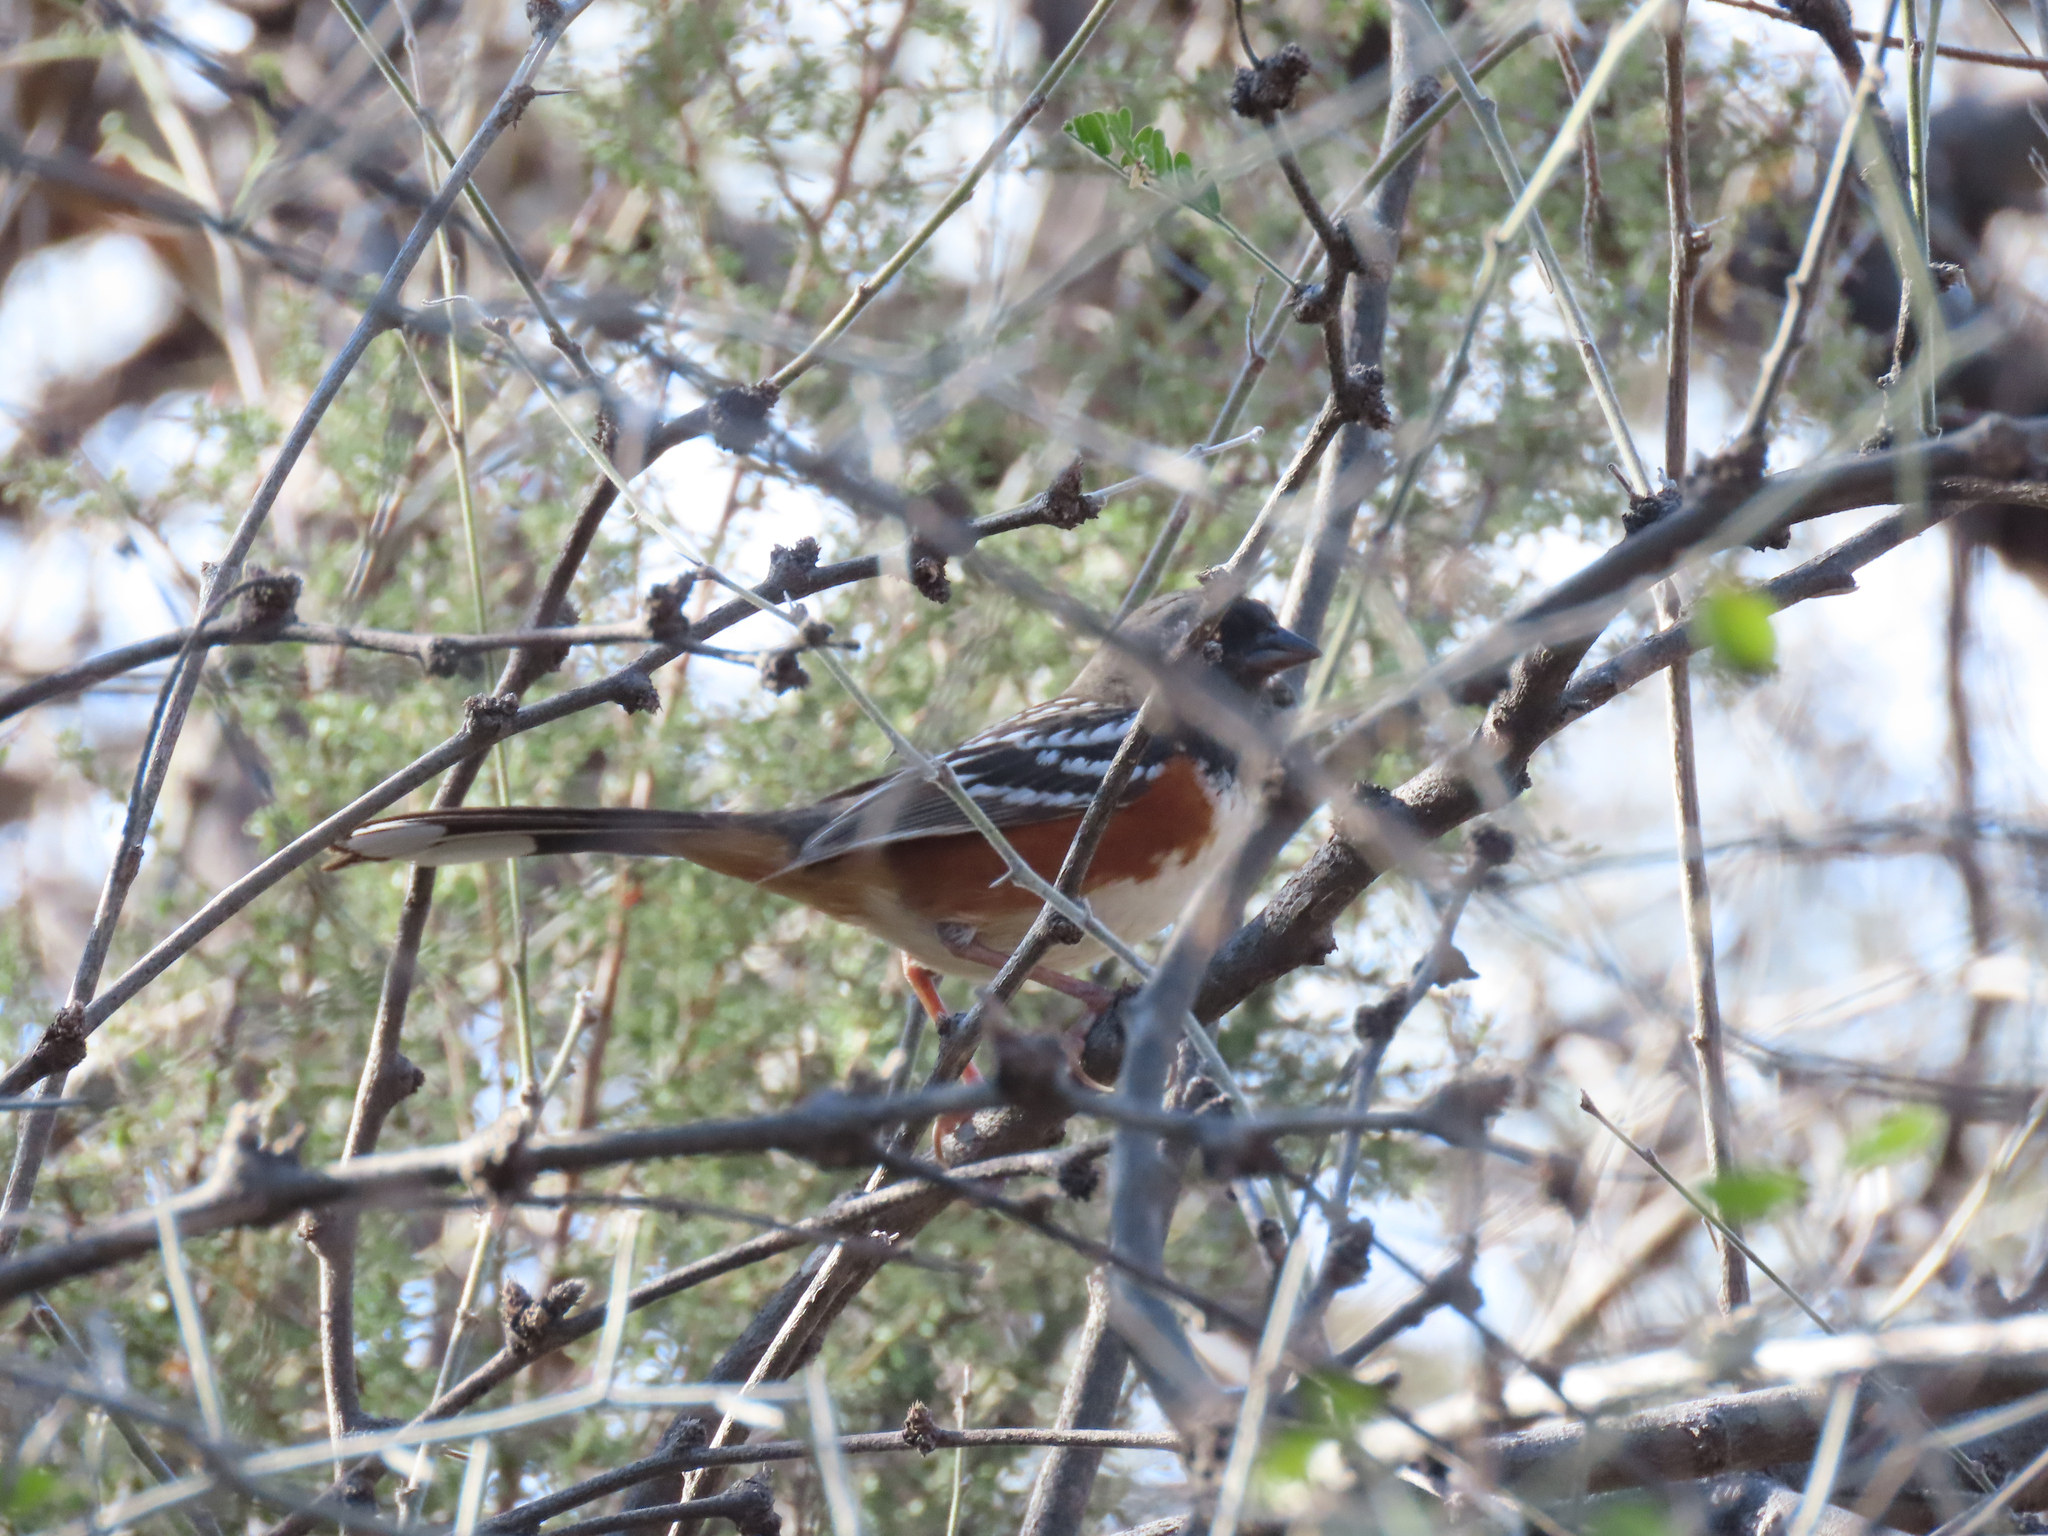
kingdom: Animalia
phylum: Chordata
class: Aves
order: Passeriformes
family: Passerellidae
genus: Pipilo
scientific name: Pipilo maculatus
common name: Spotted towhee
